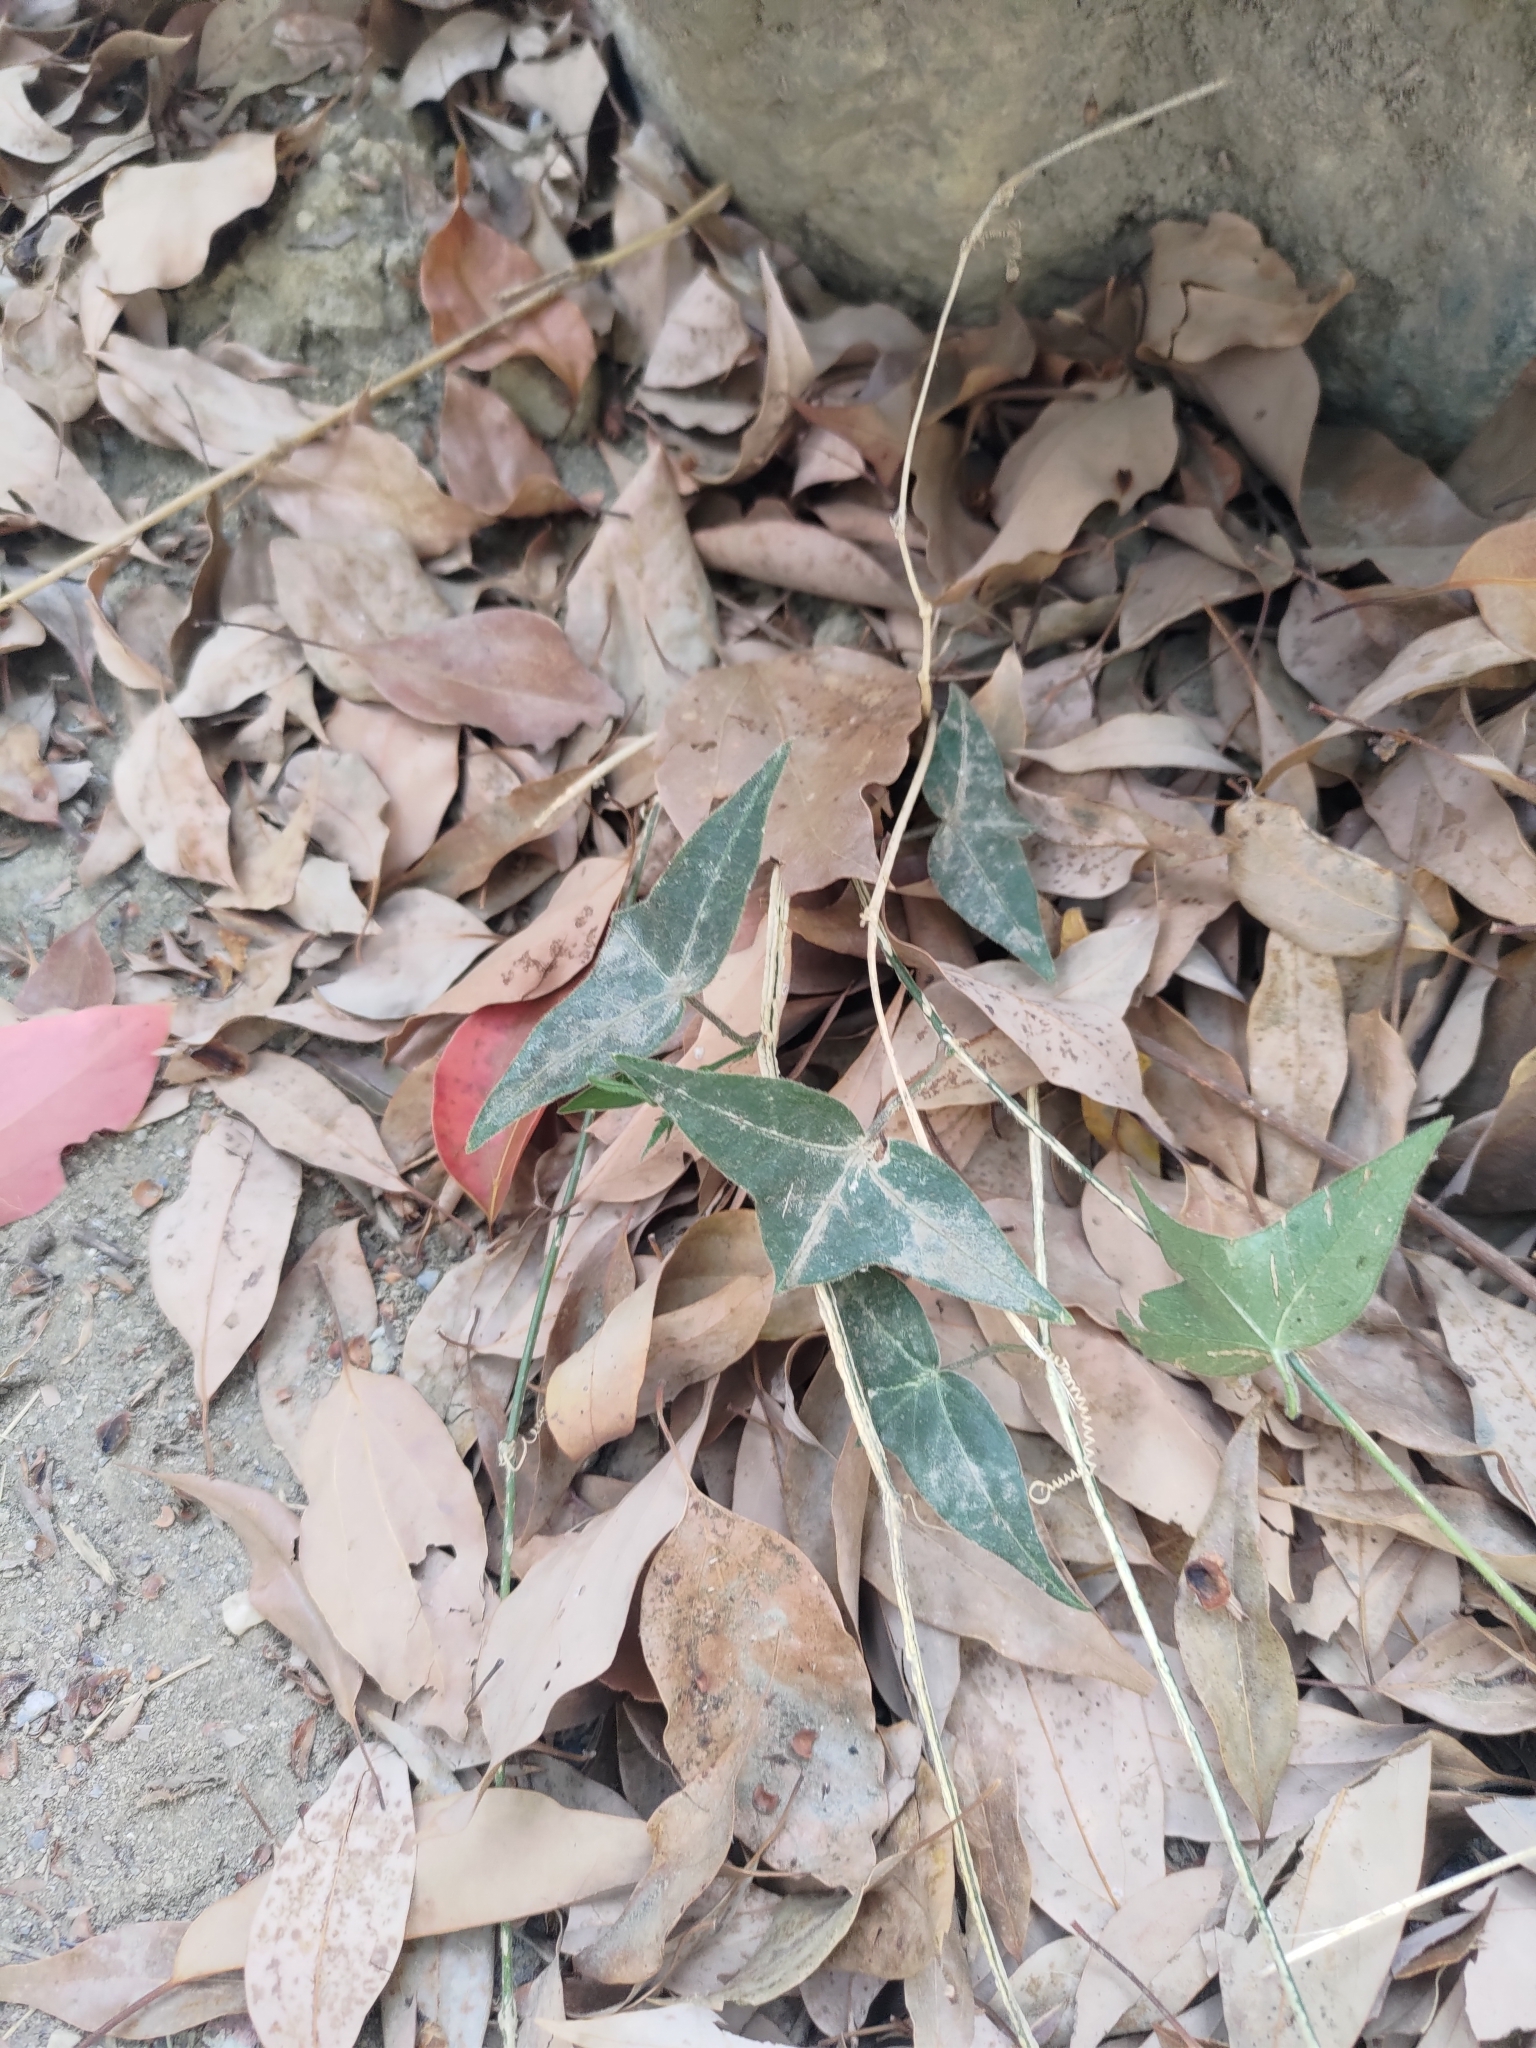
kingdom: Plantae
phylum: Tracheophyta
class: Magnoliopsida
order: Malpighiales
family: Passifloraceae
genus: Passiflora
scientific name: Passiflora suberosa
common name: Wild passionfruit
